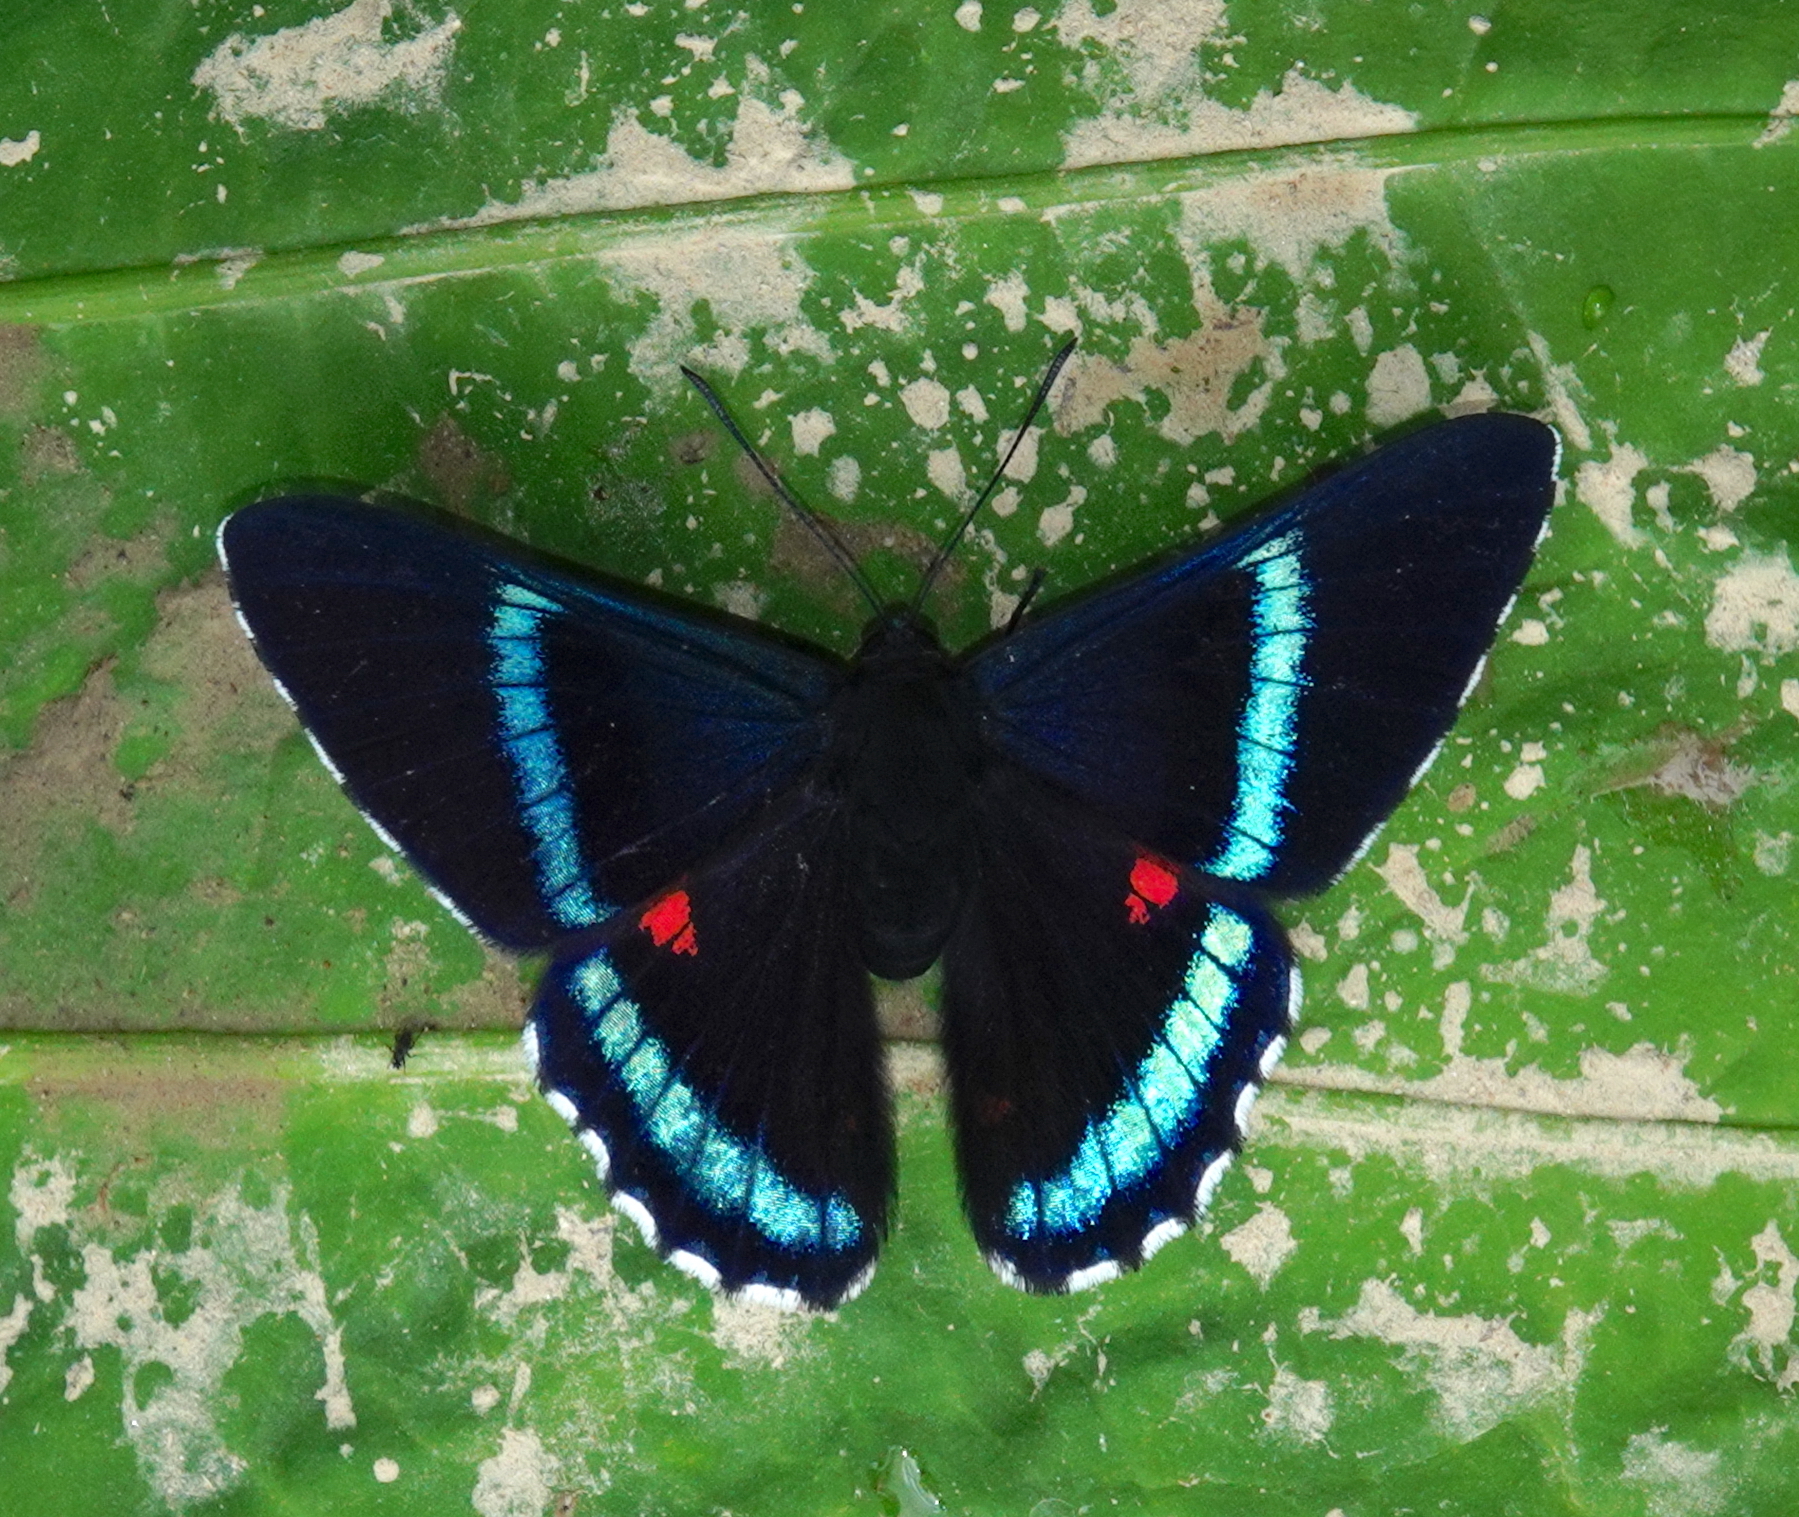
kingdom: Animalia
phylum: Arthropoda
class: Insecta
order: Lepidoptera
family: Lycaenidae
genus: Necyria
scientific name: Necyria bellona
